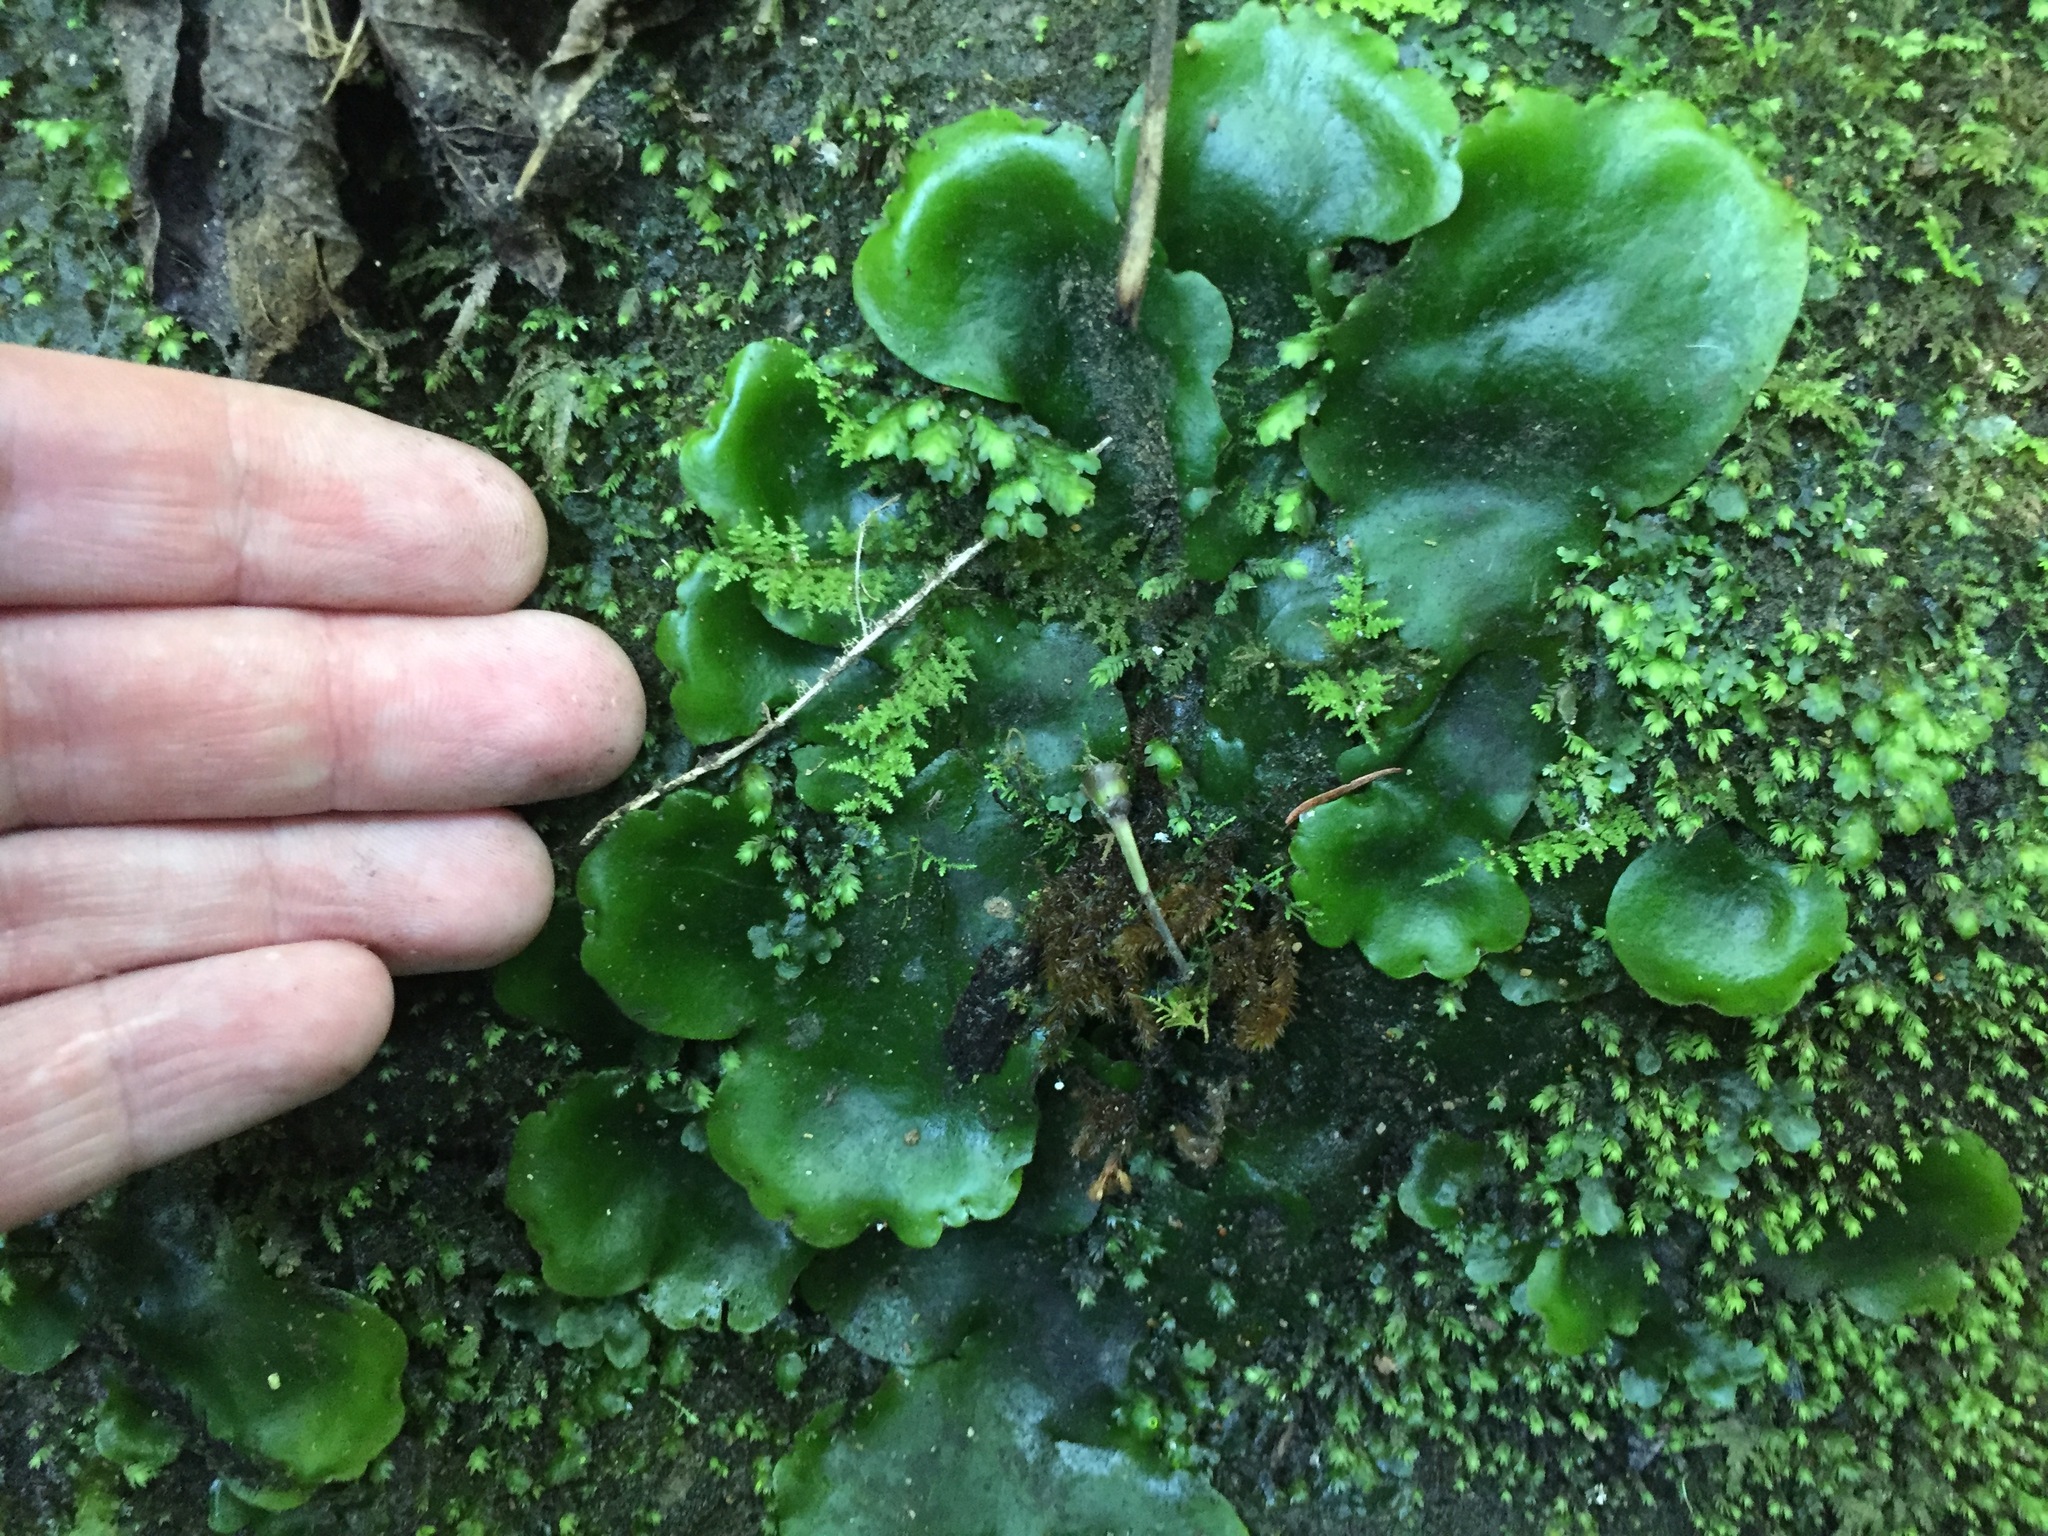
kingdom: Plantae
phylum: Marchantiophyta
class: Marchantiopsida
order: Marchantiales
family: Monocleaceae
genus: Monoclea
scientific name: Monoclea forsteri
